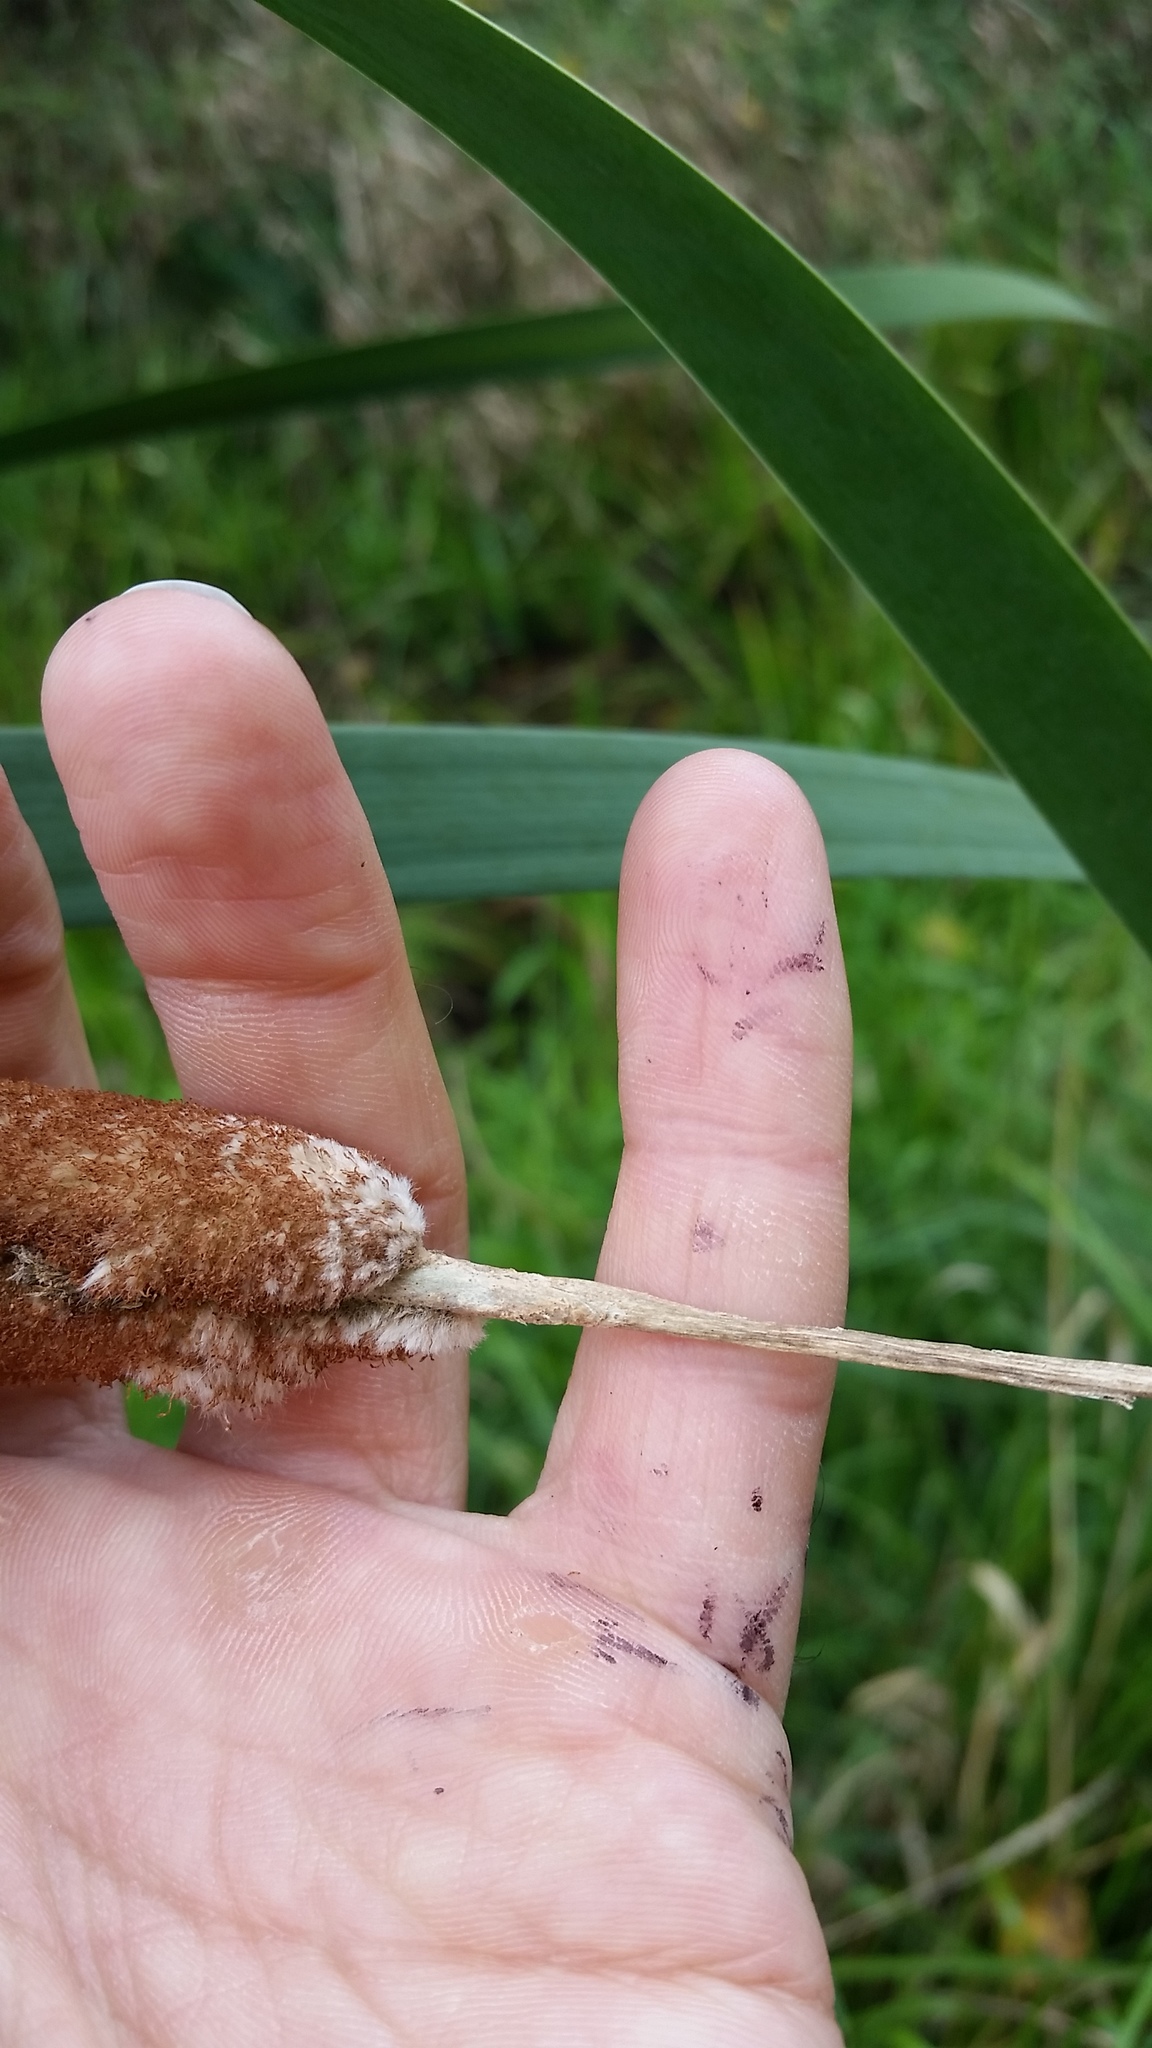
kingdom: Plantae
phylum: Tracheophyta
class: Liliopsida
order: Poales
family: Typhaceae
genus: Typha
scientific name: Typha latifolia
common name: Broadleaf cattail
